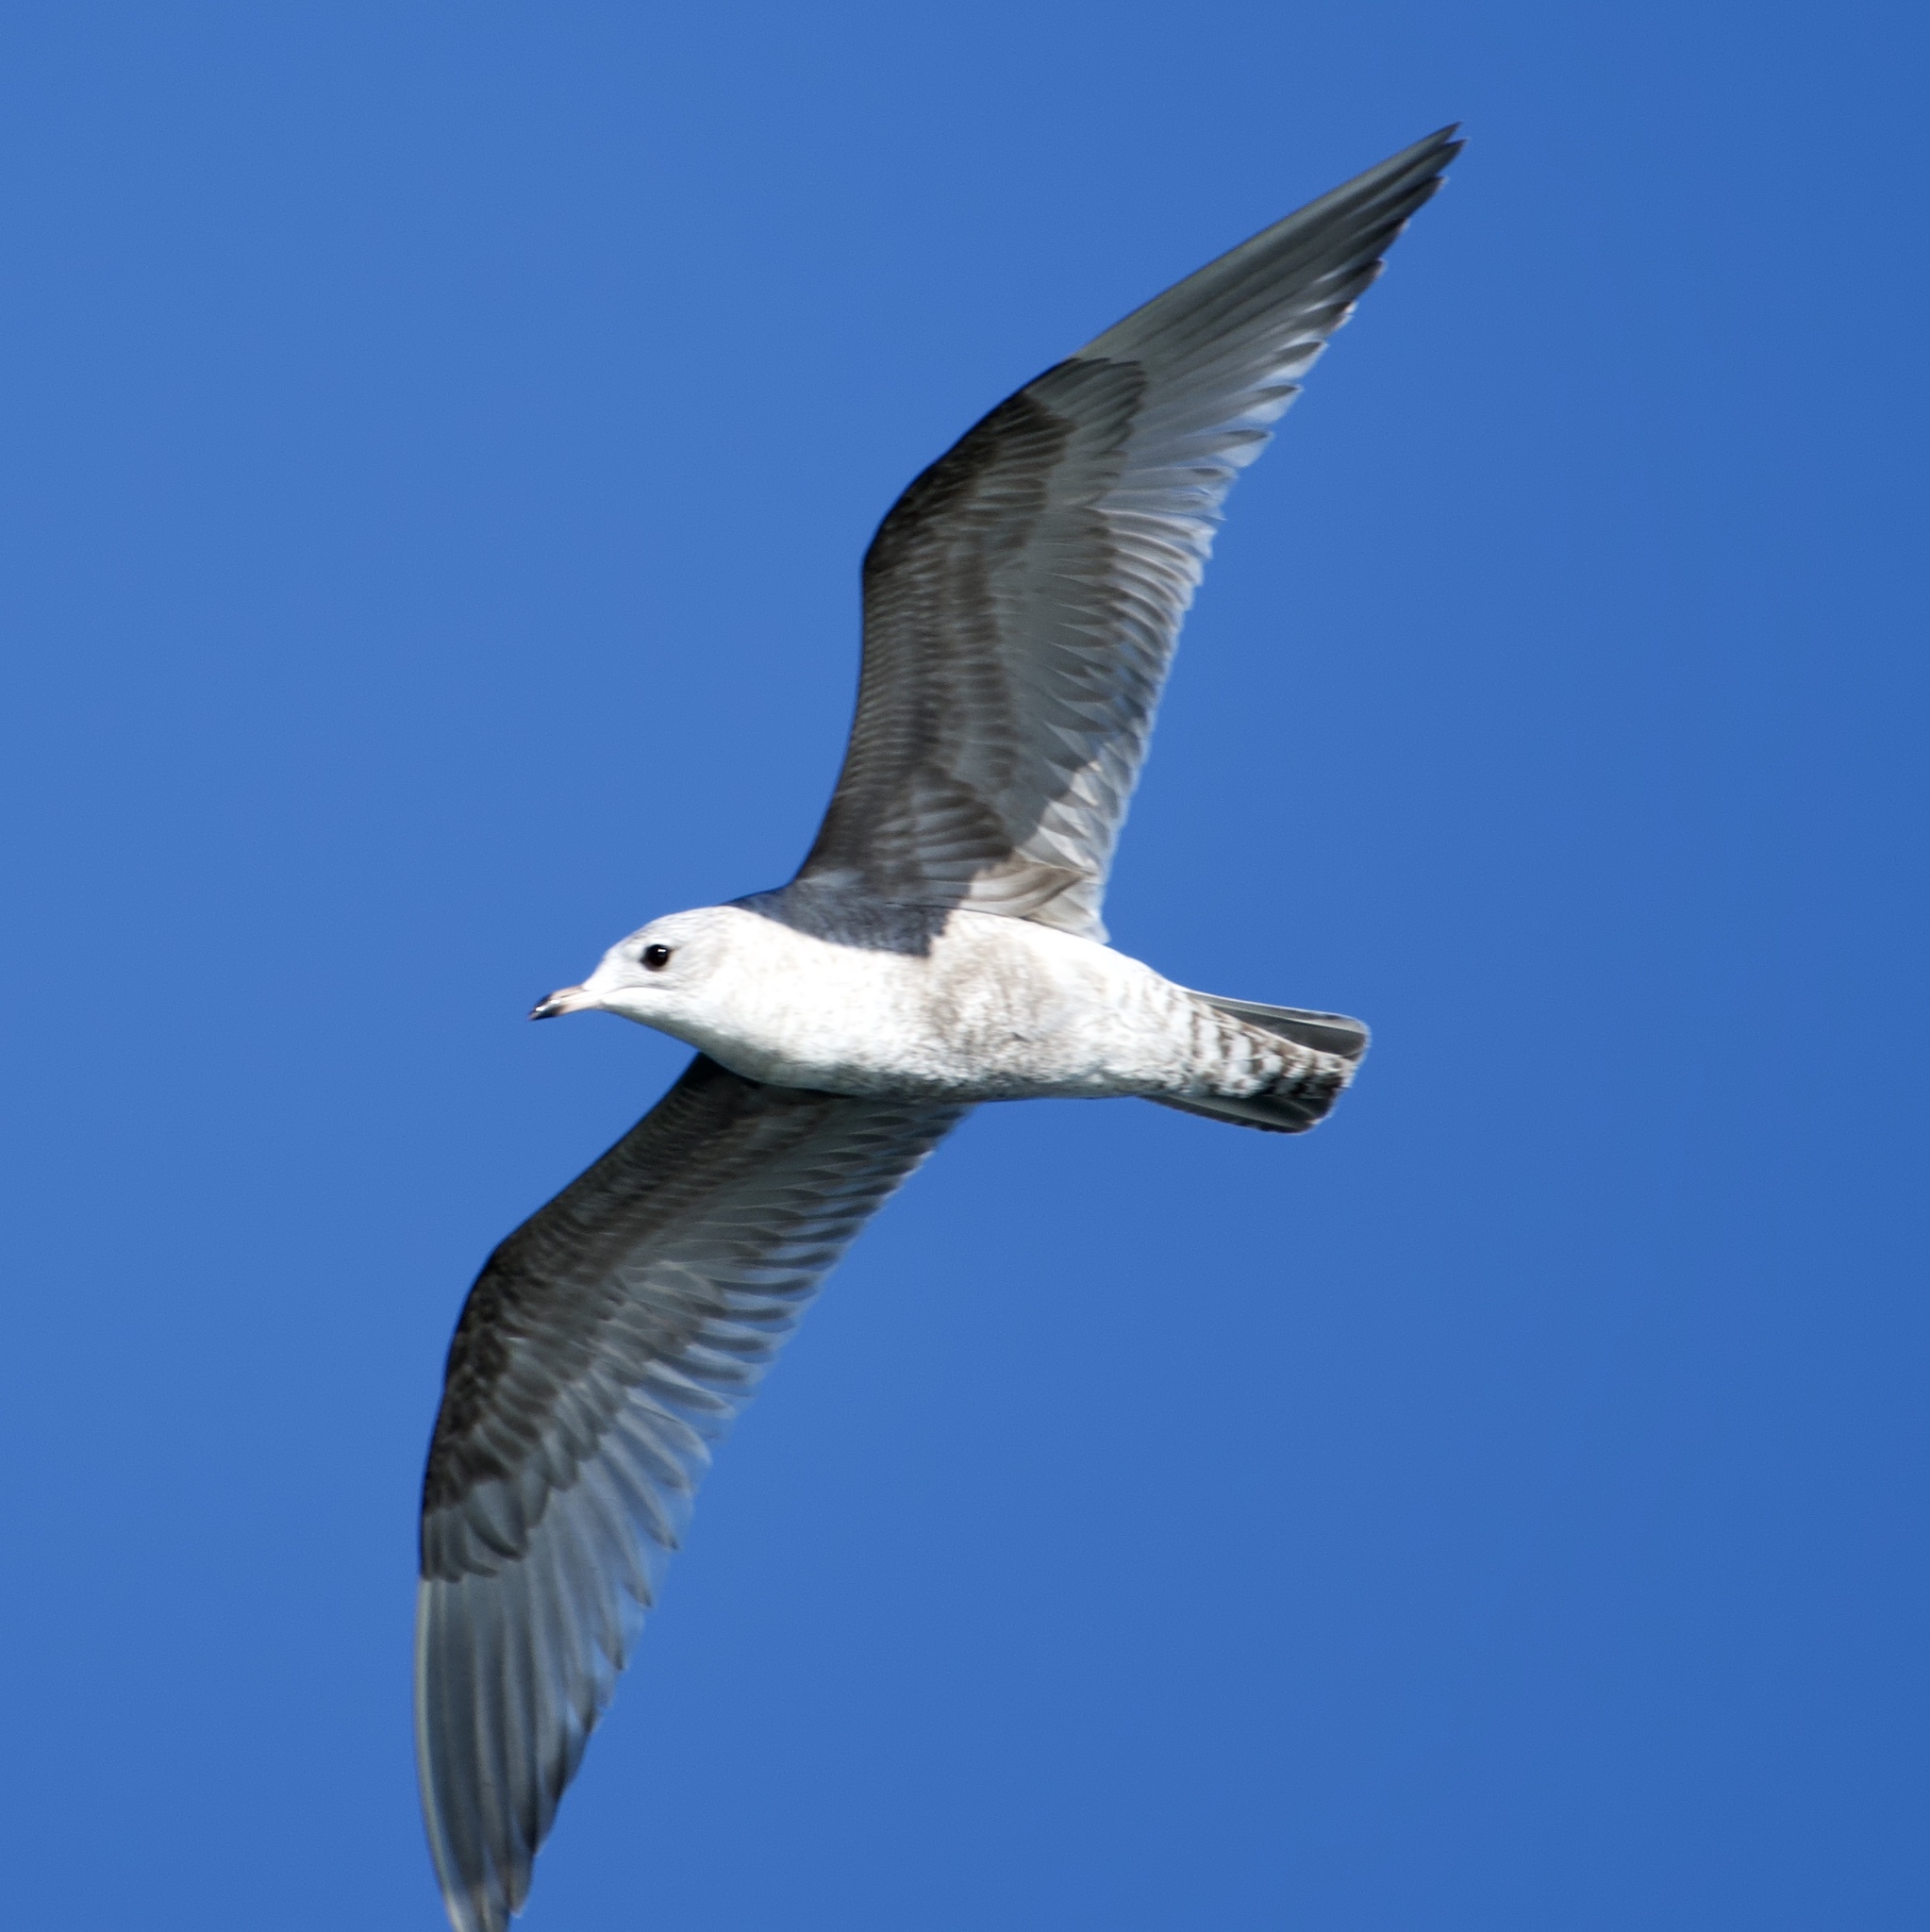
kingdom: Animalia
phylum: Chordata
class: Aves
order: Charadriiformes
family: Laridae
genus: Larus
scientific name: Larus brachyrhynchus
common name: Short-billed gull
